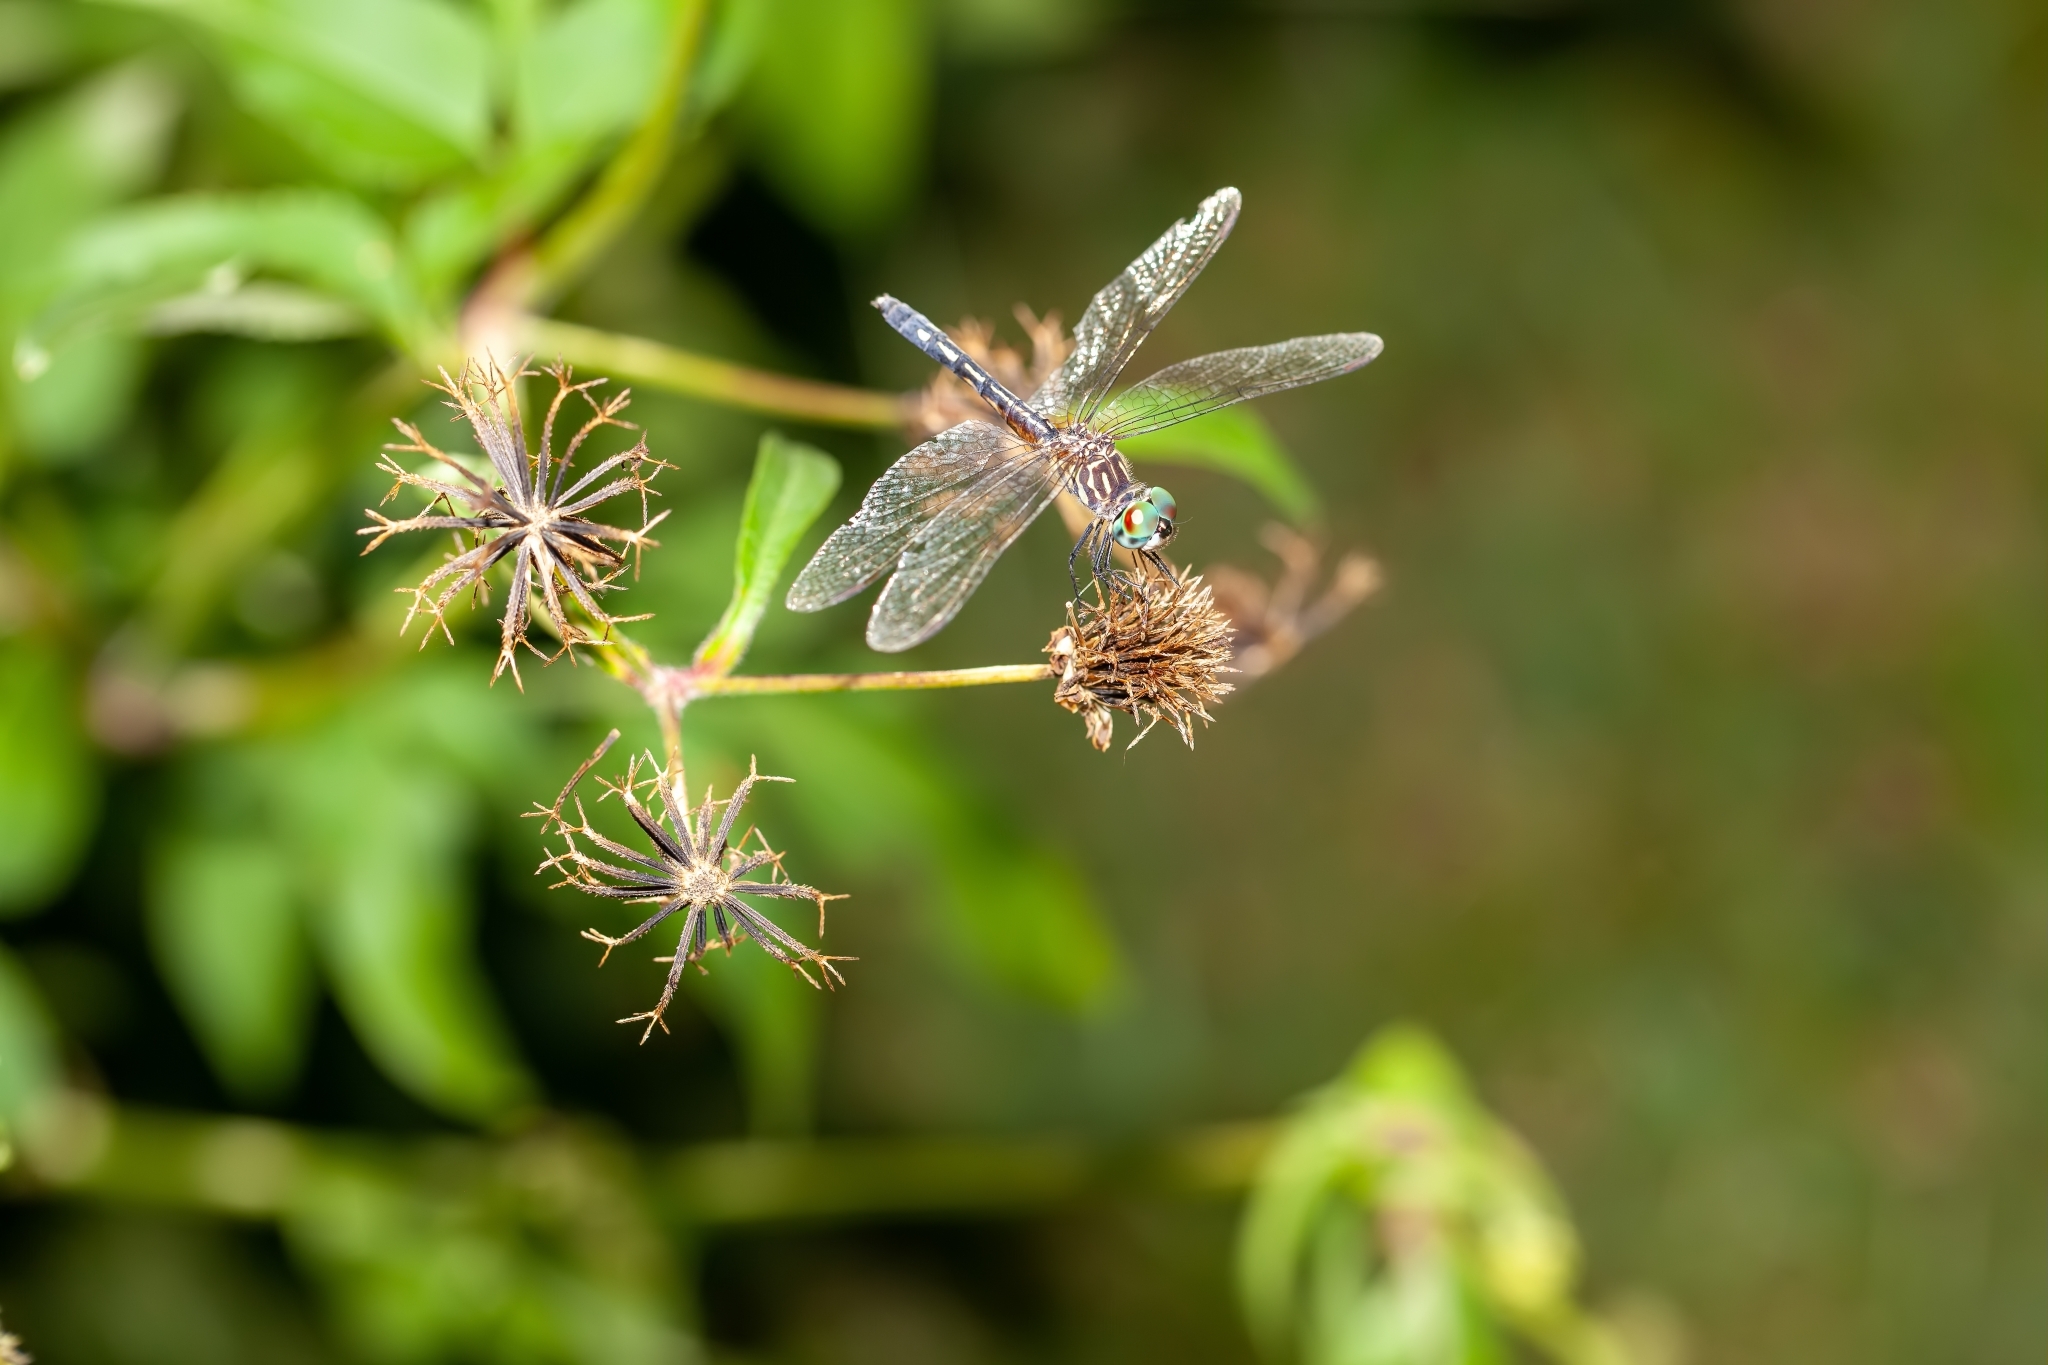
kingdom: Animalia
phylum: Arthropoda
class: Insecta
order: Odonata
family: Libellulidae
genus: Pachydiplax
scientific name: Pachydiplax longipennis
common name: Blue dasher
